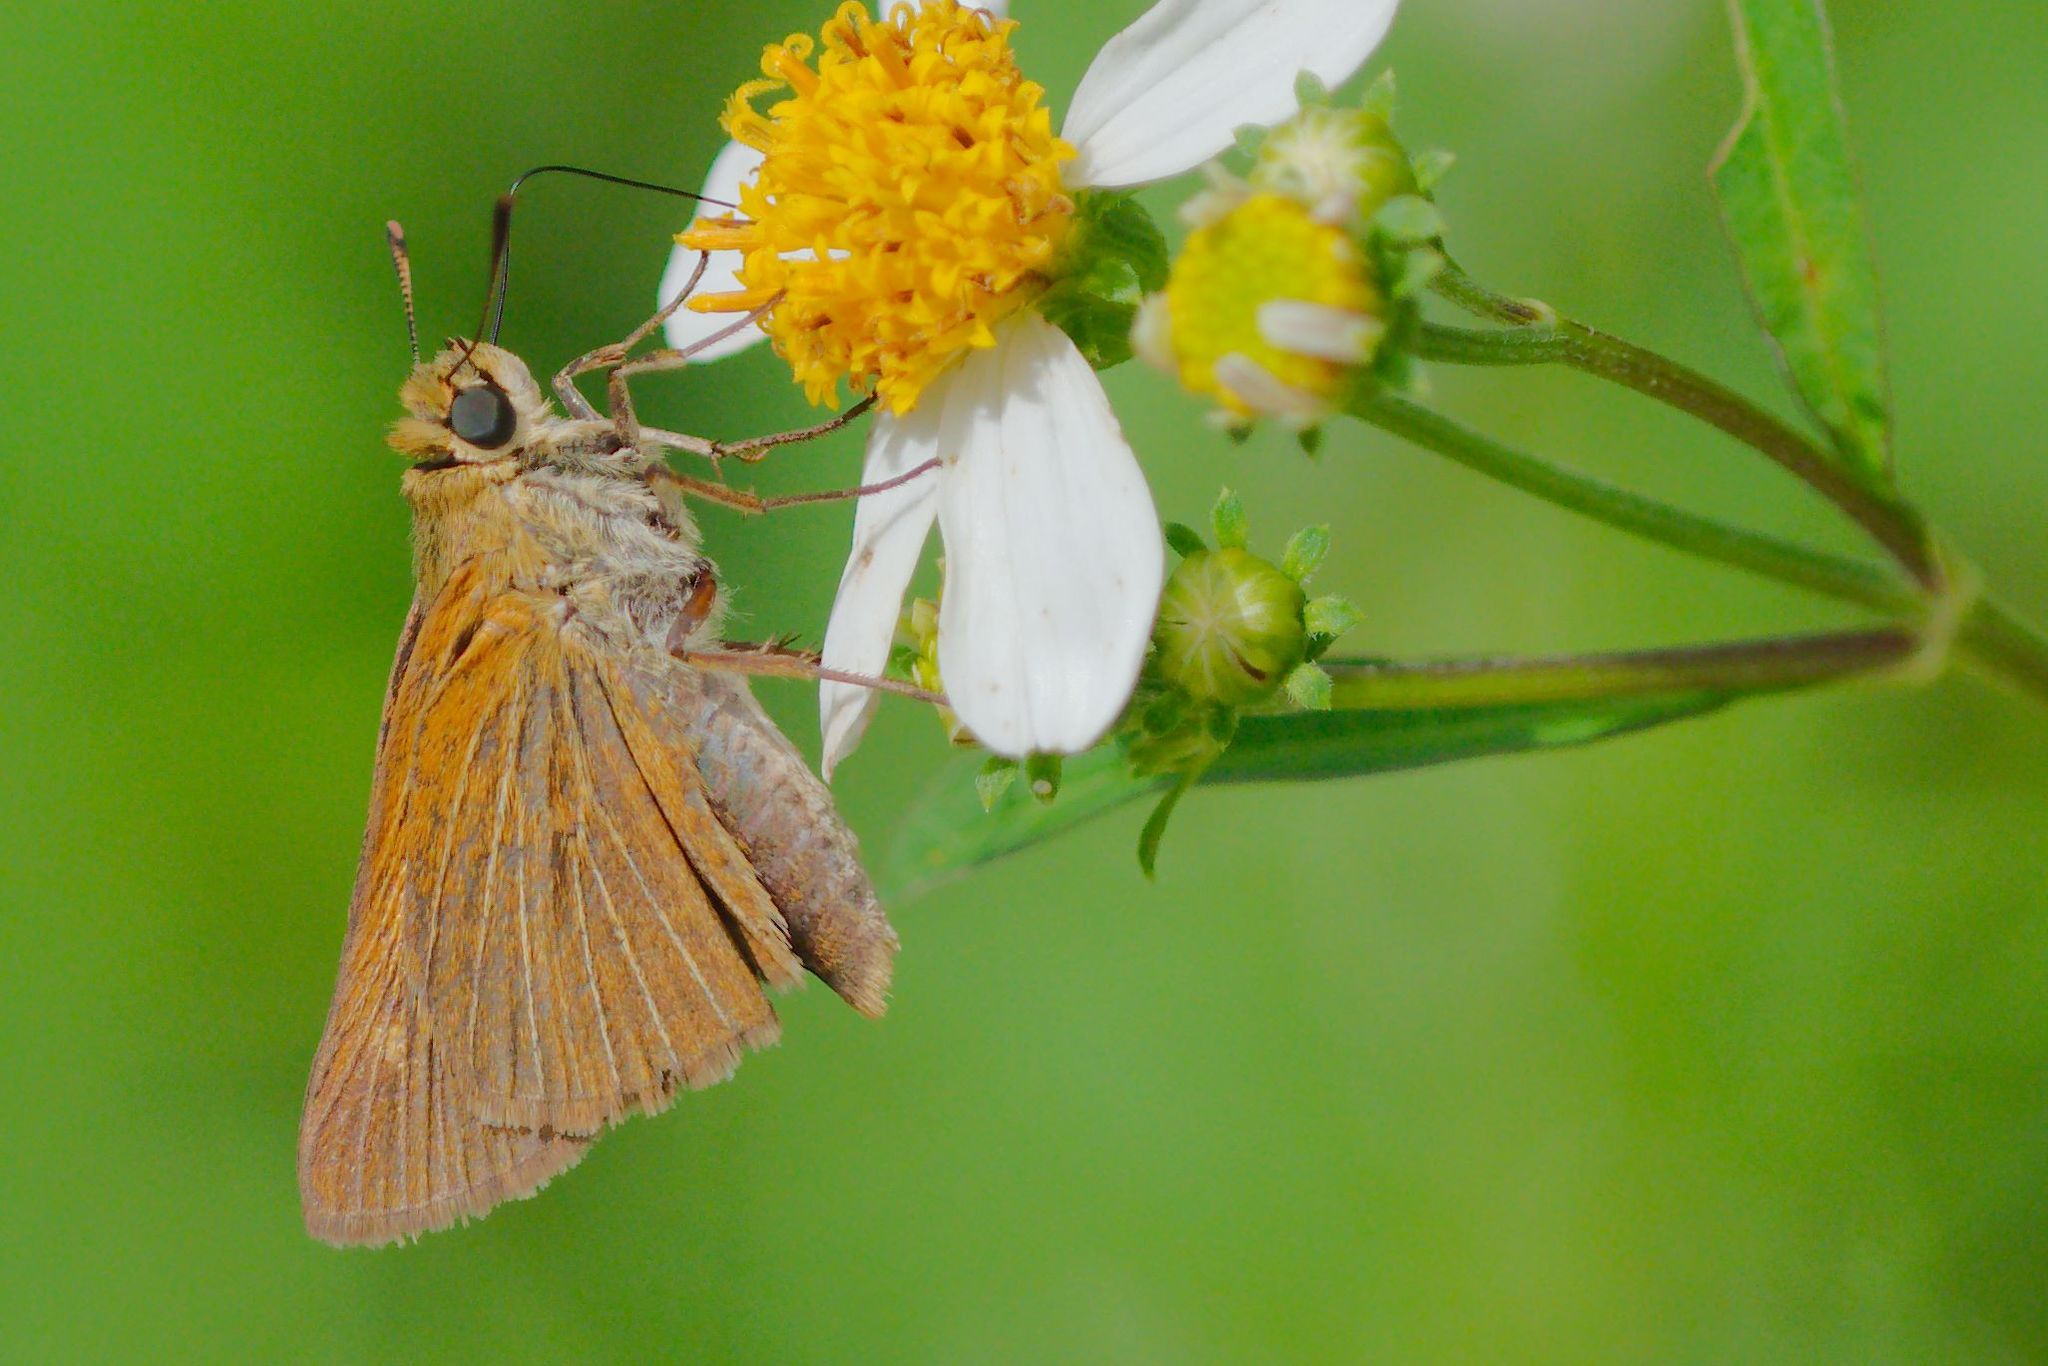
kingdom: Animalia
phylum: Arthropoda
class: Insecta
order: Lepidoptera
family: Hesperiidae
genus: Euphyes
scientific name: Euphyes berryi
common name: Berry's skipper
